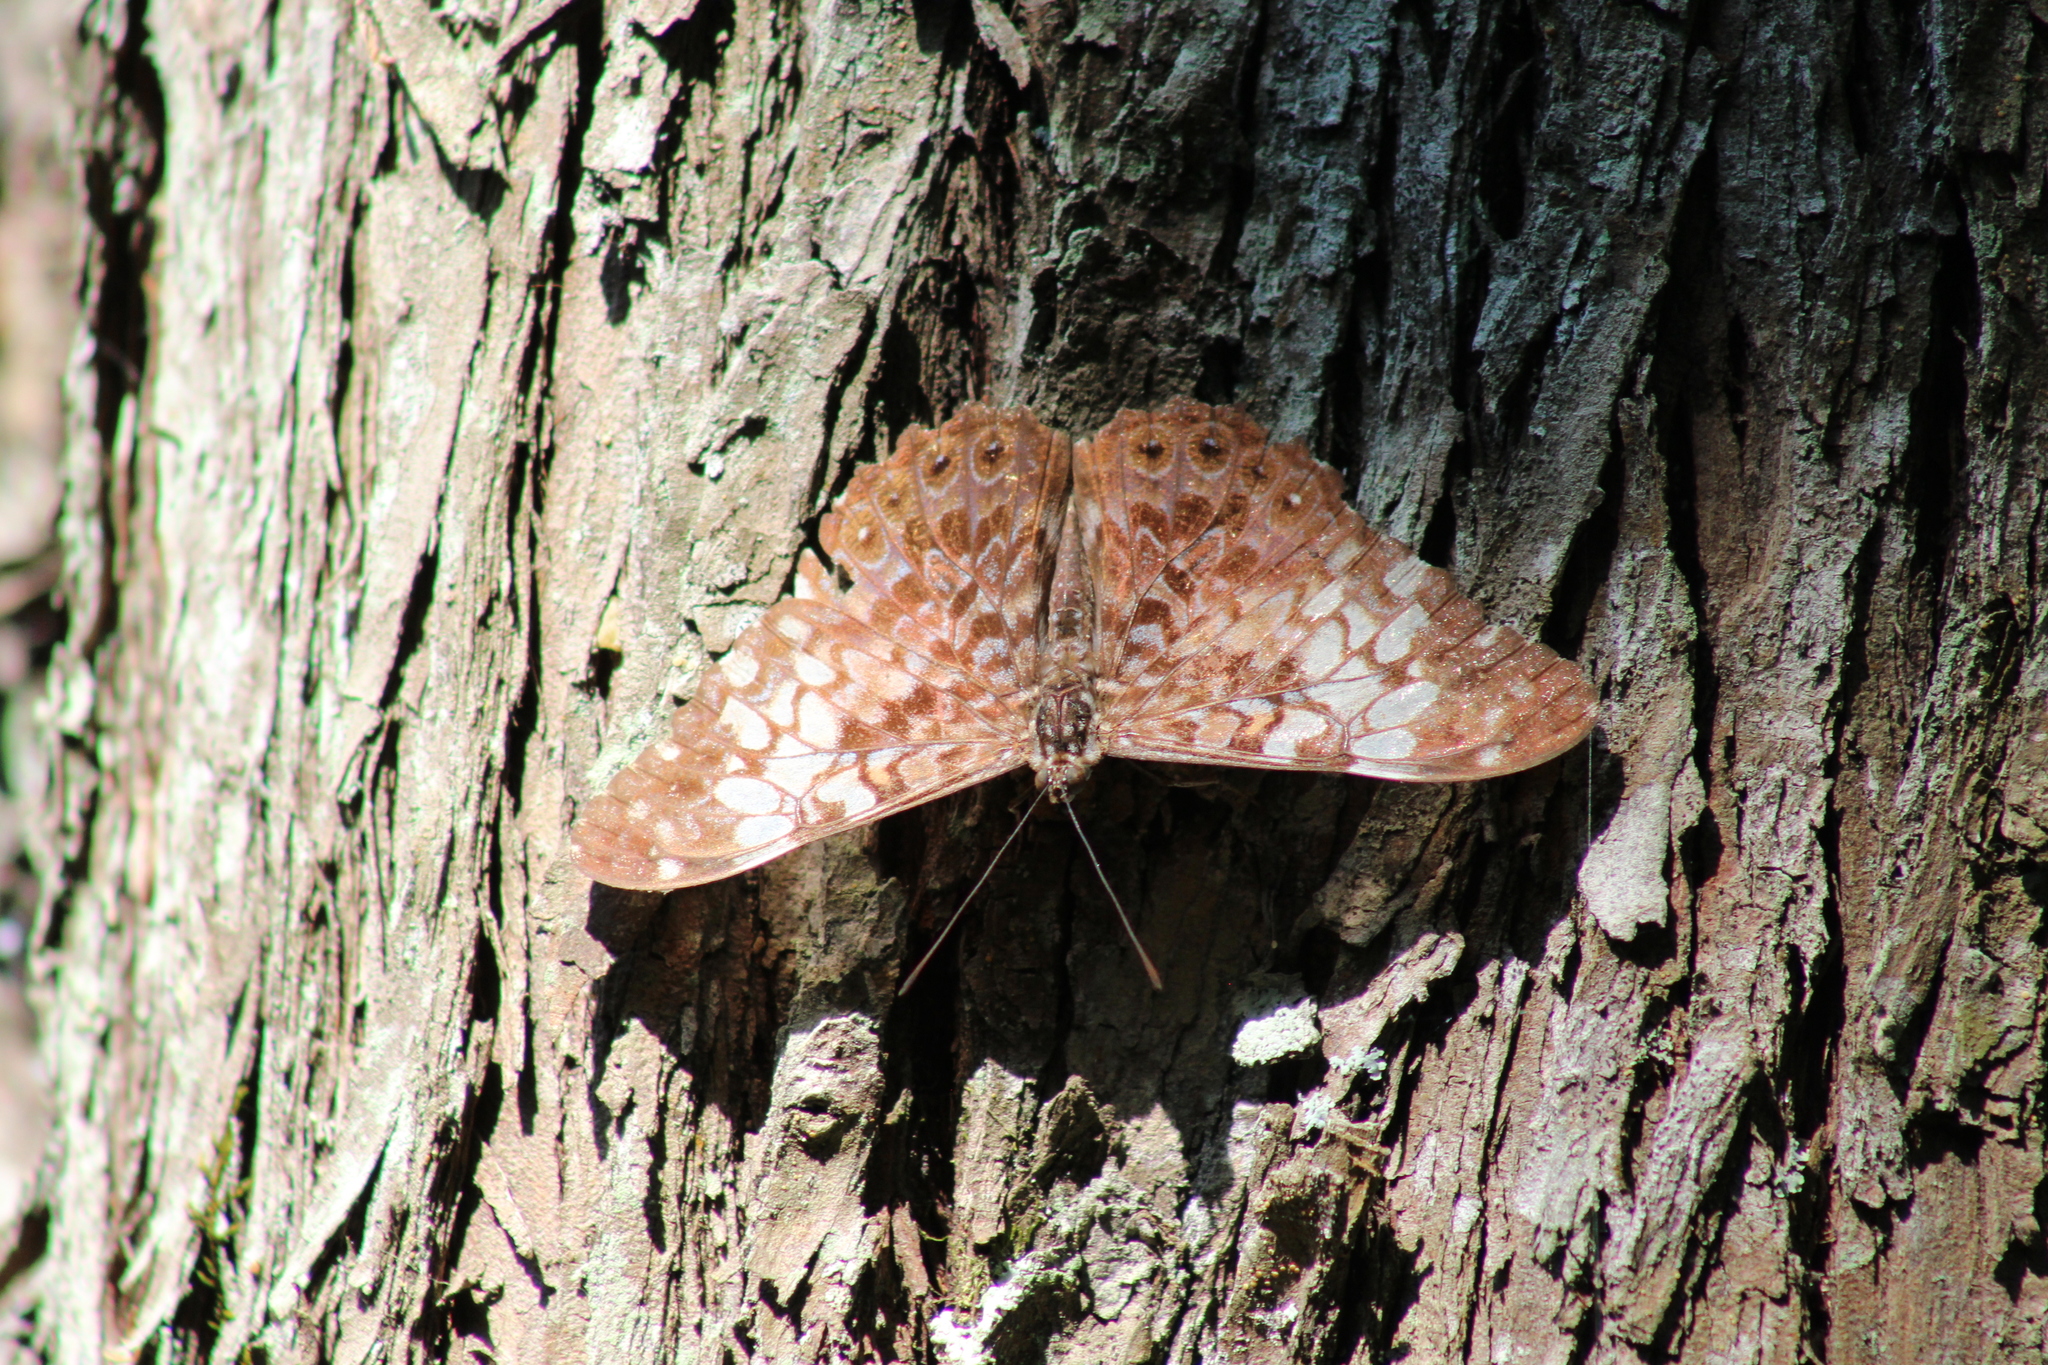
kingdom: Animalia
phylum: Arthropoda
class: Insecta
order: Lepidoptera
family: Nymphalidae
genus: Hamadryas
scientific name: Hamadryas fornax
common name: Orange cracker
